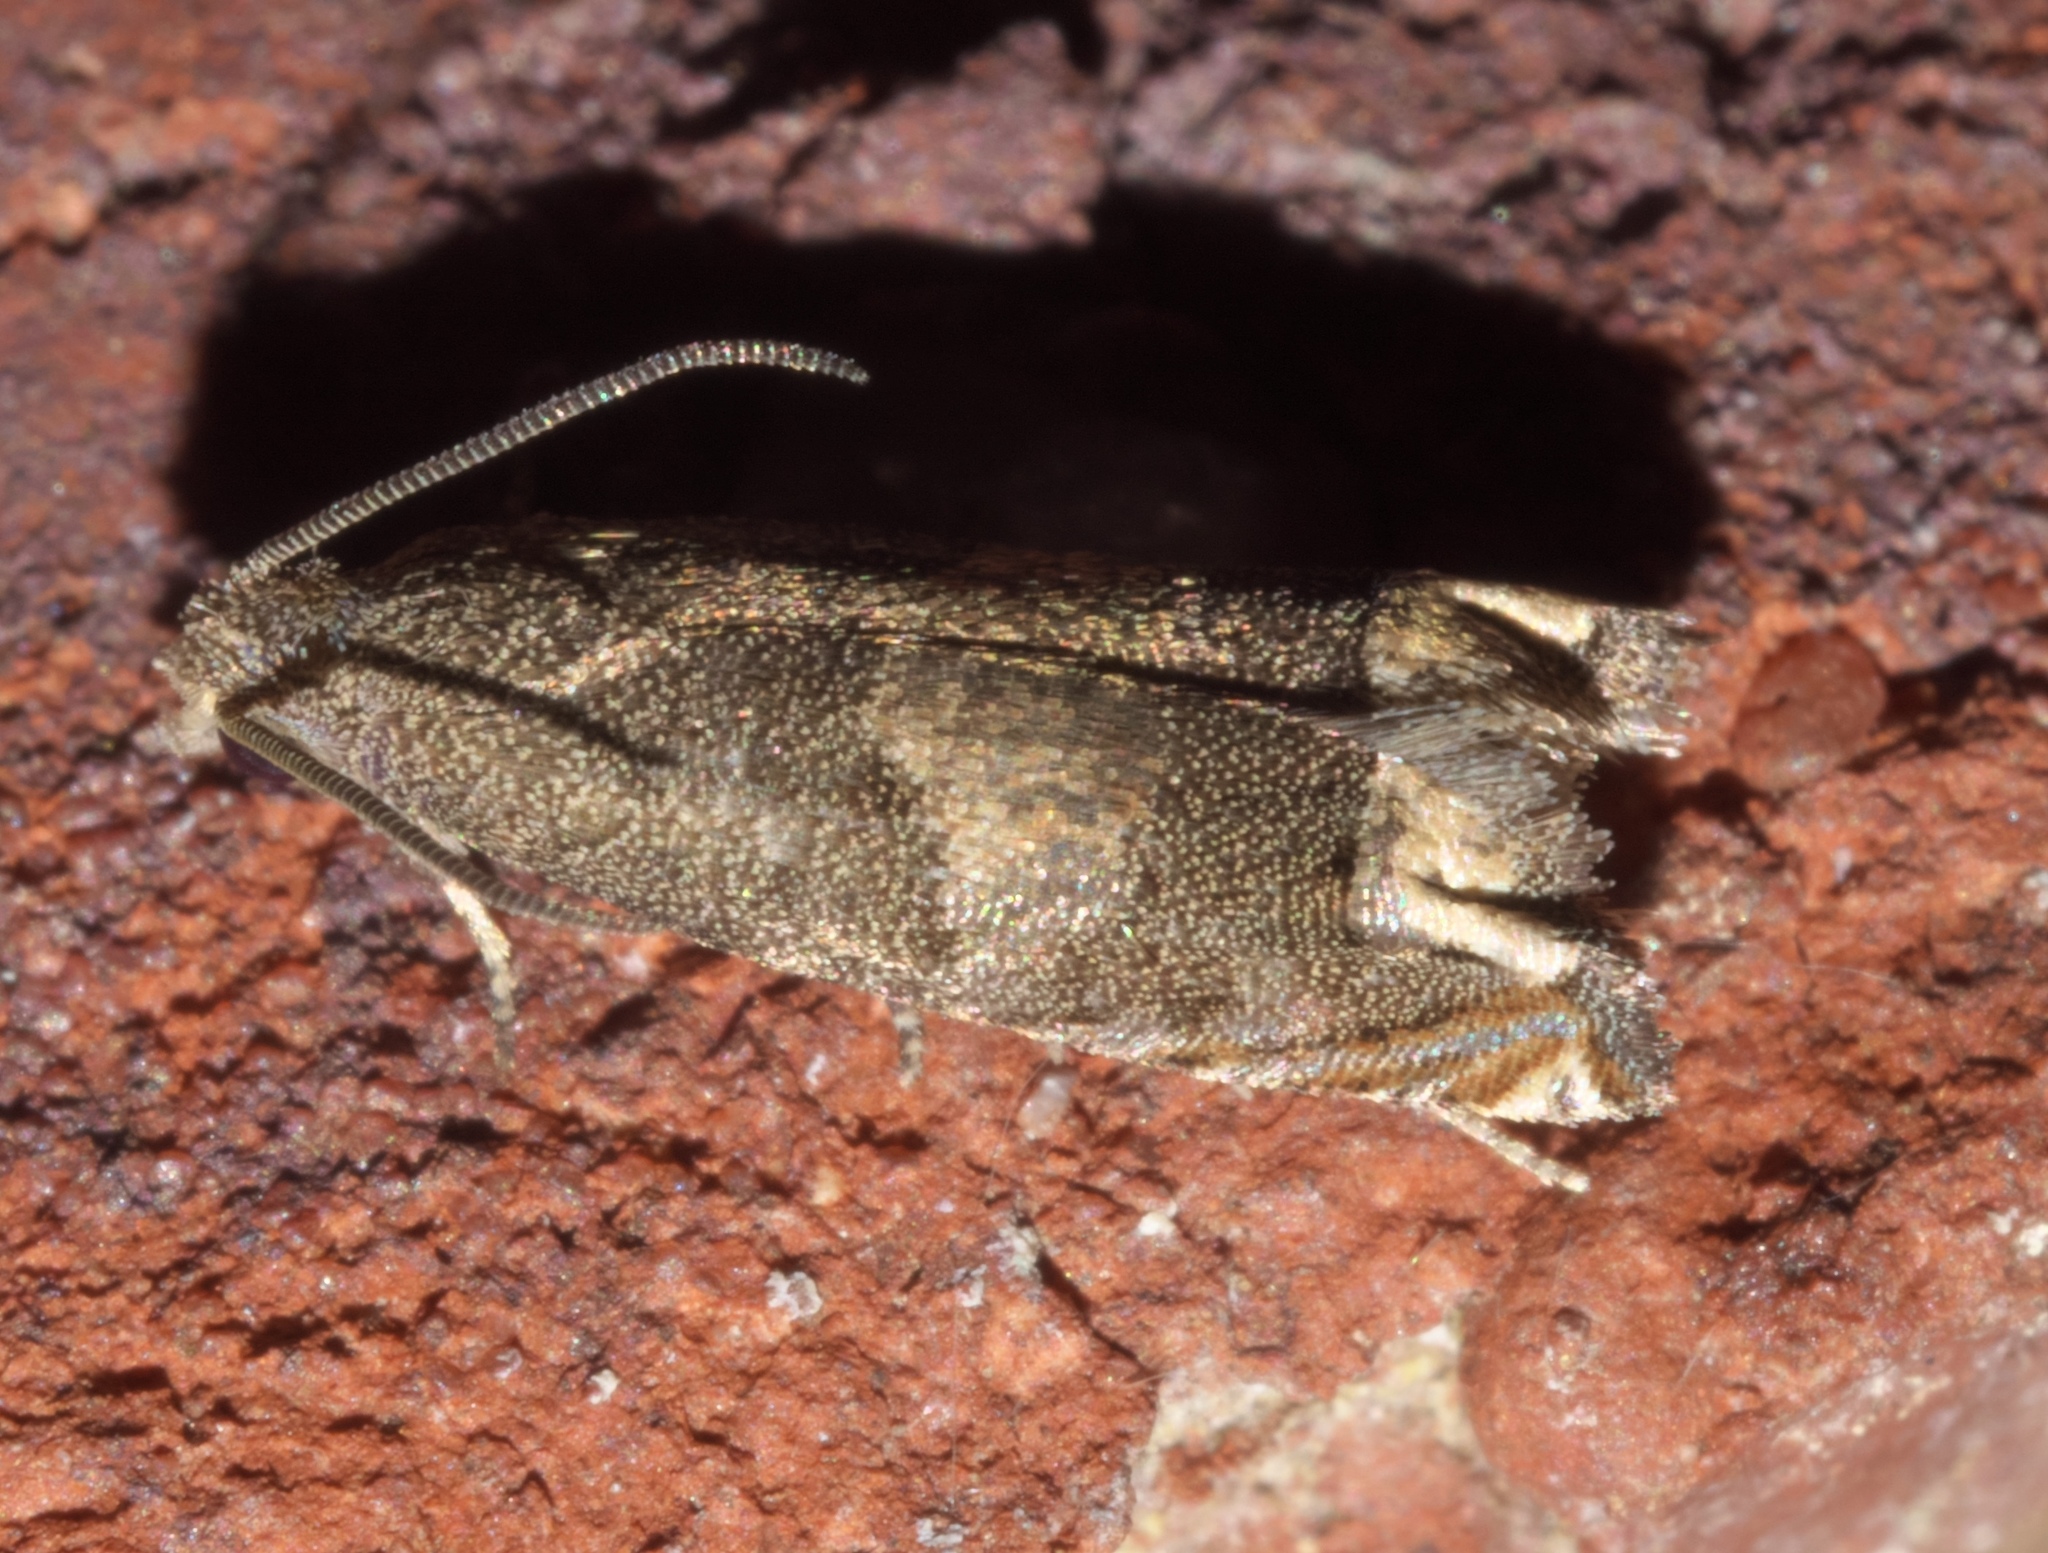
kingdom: Animalia
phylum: Arthropoda
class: Insecta
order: Lepidoptera
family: Tortricidae
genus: Epiblema
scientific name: Epiblema strenuana
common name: Ragweed borer moth
